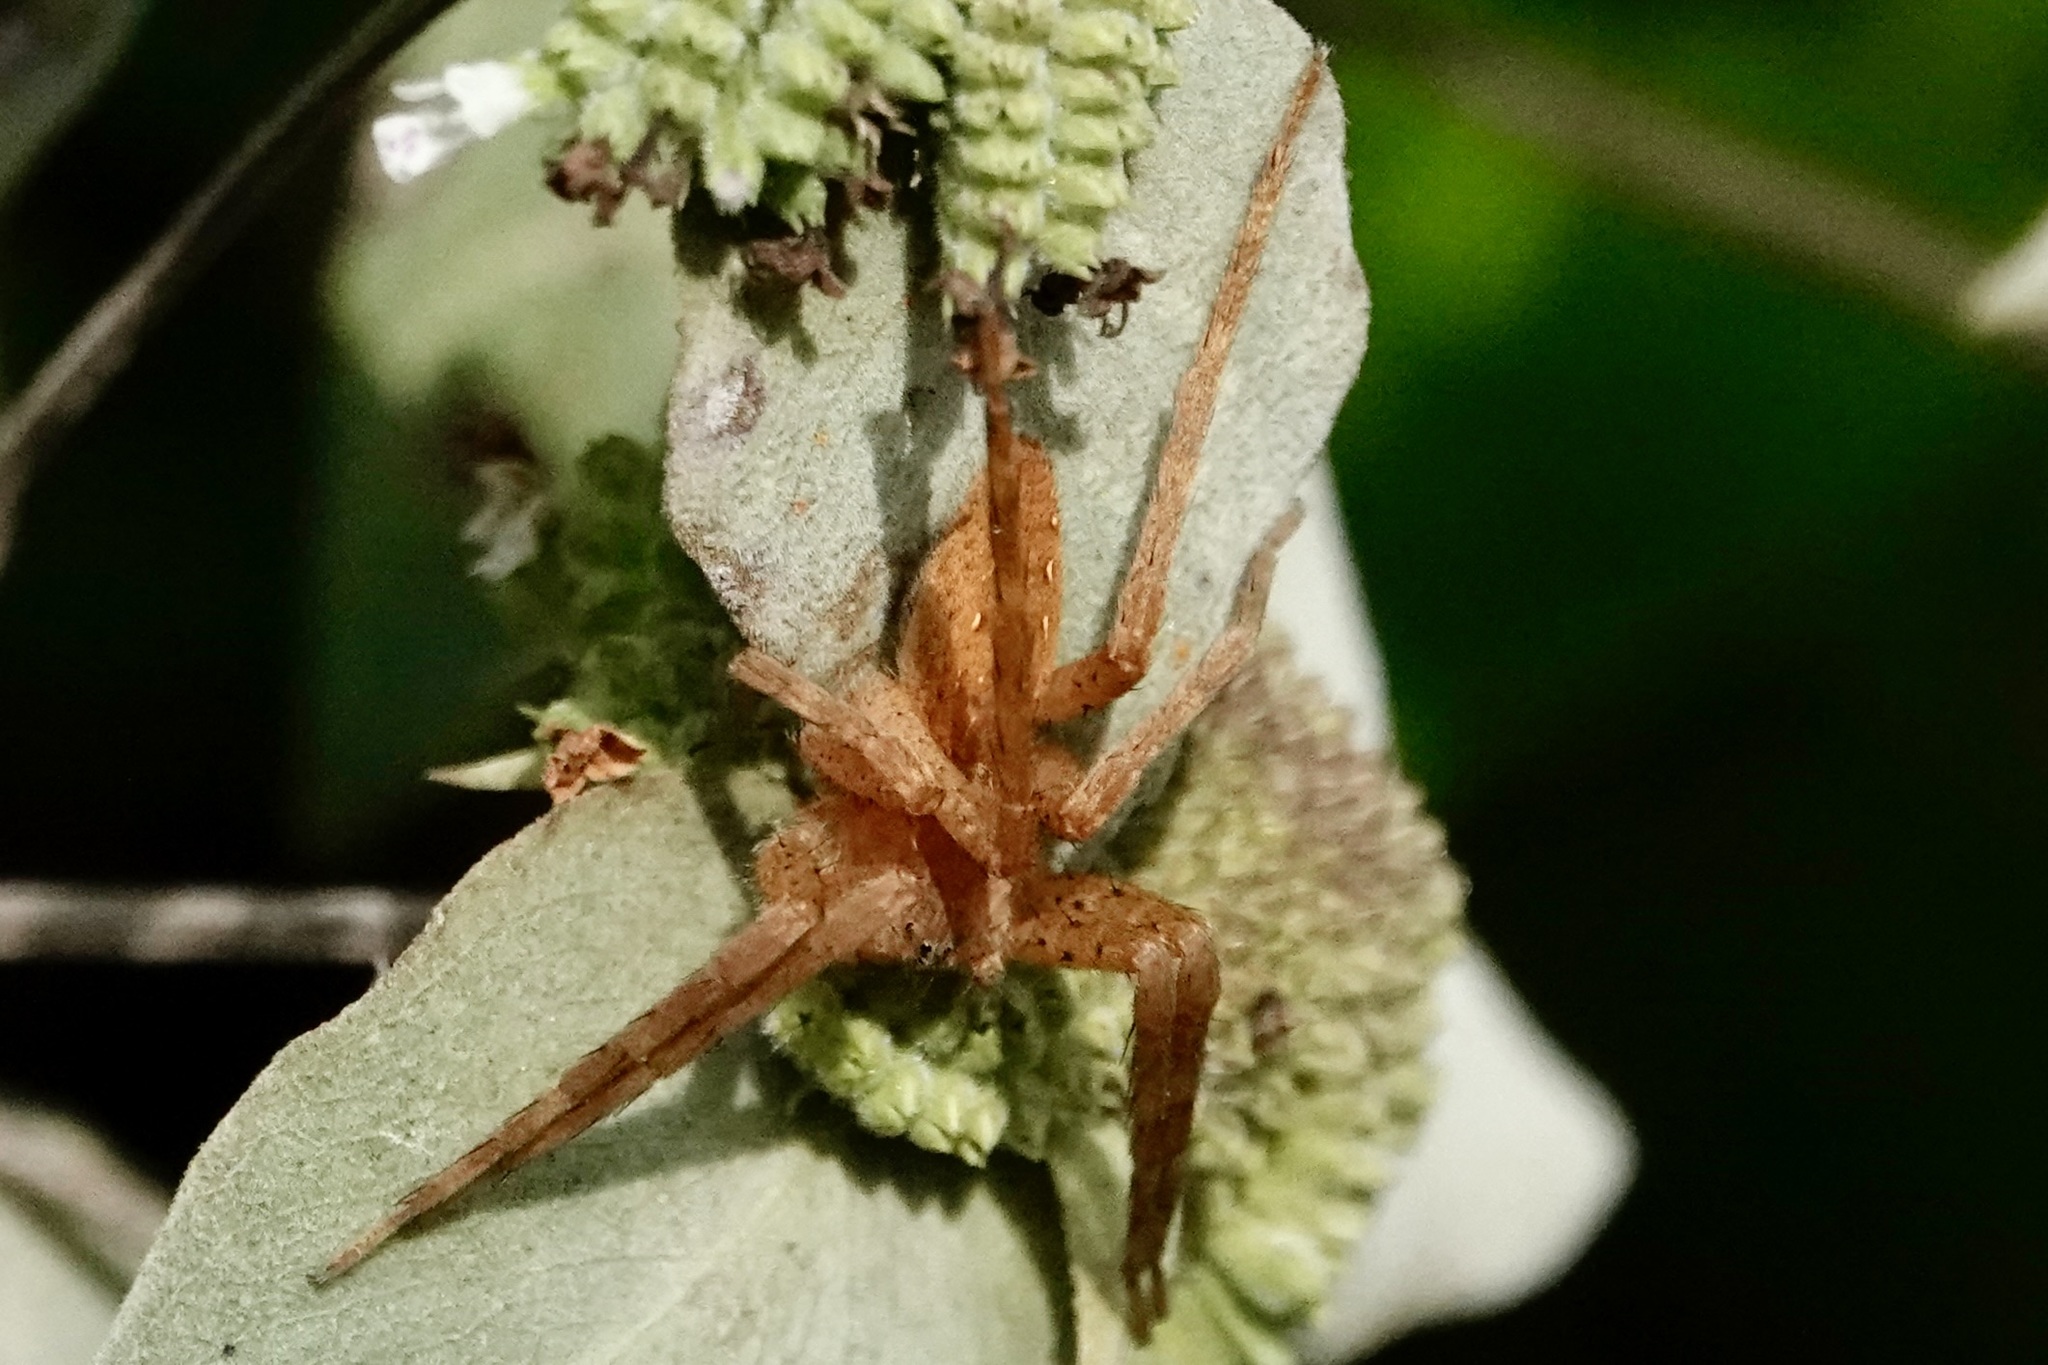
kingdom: Animalia
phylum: Arthropoda
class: Arachnida
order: Araneae
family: Pisauridae
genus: Pisaurina
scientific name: Pisaurina mira
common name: American nursery web spider
